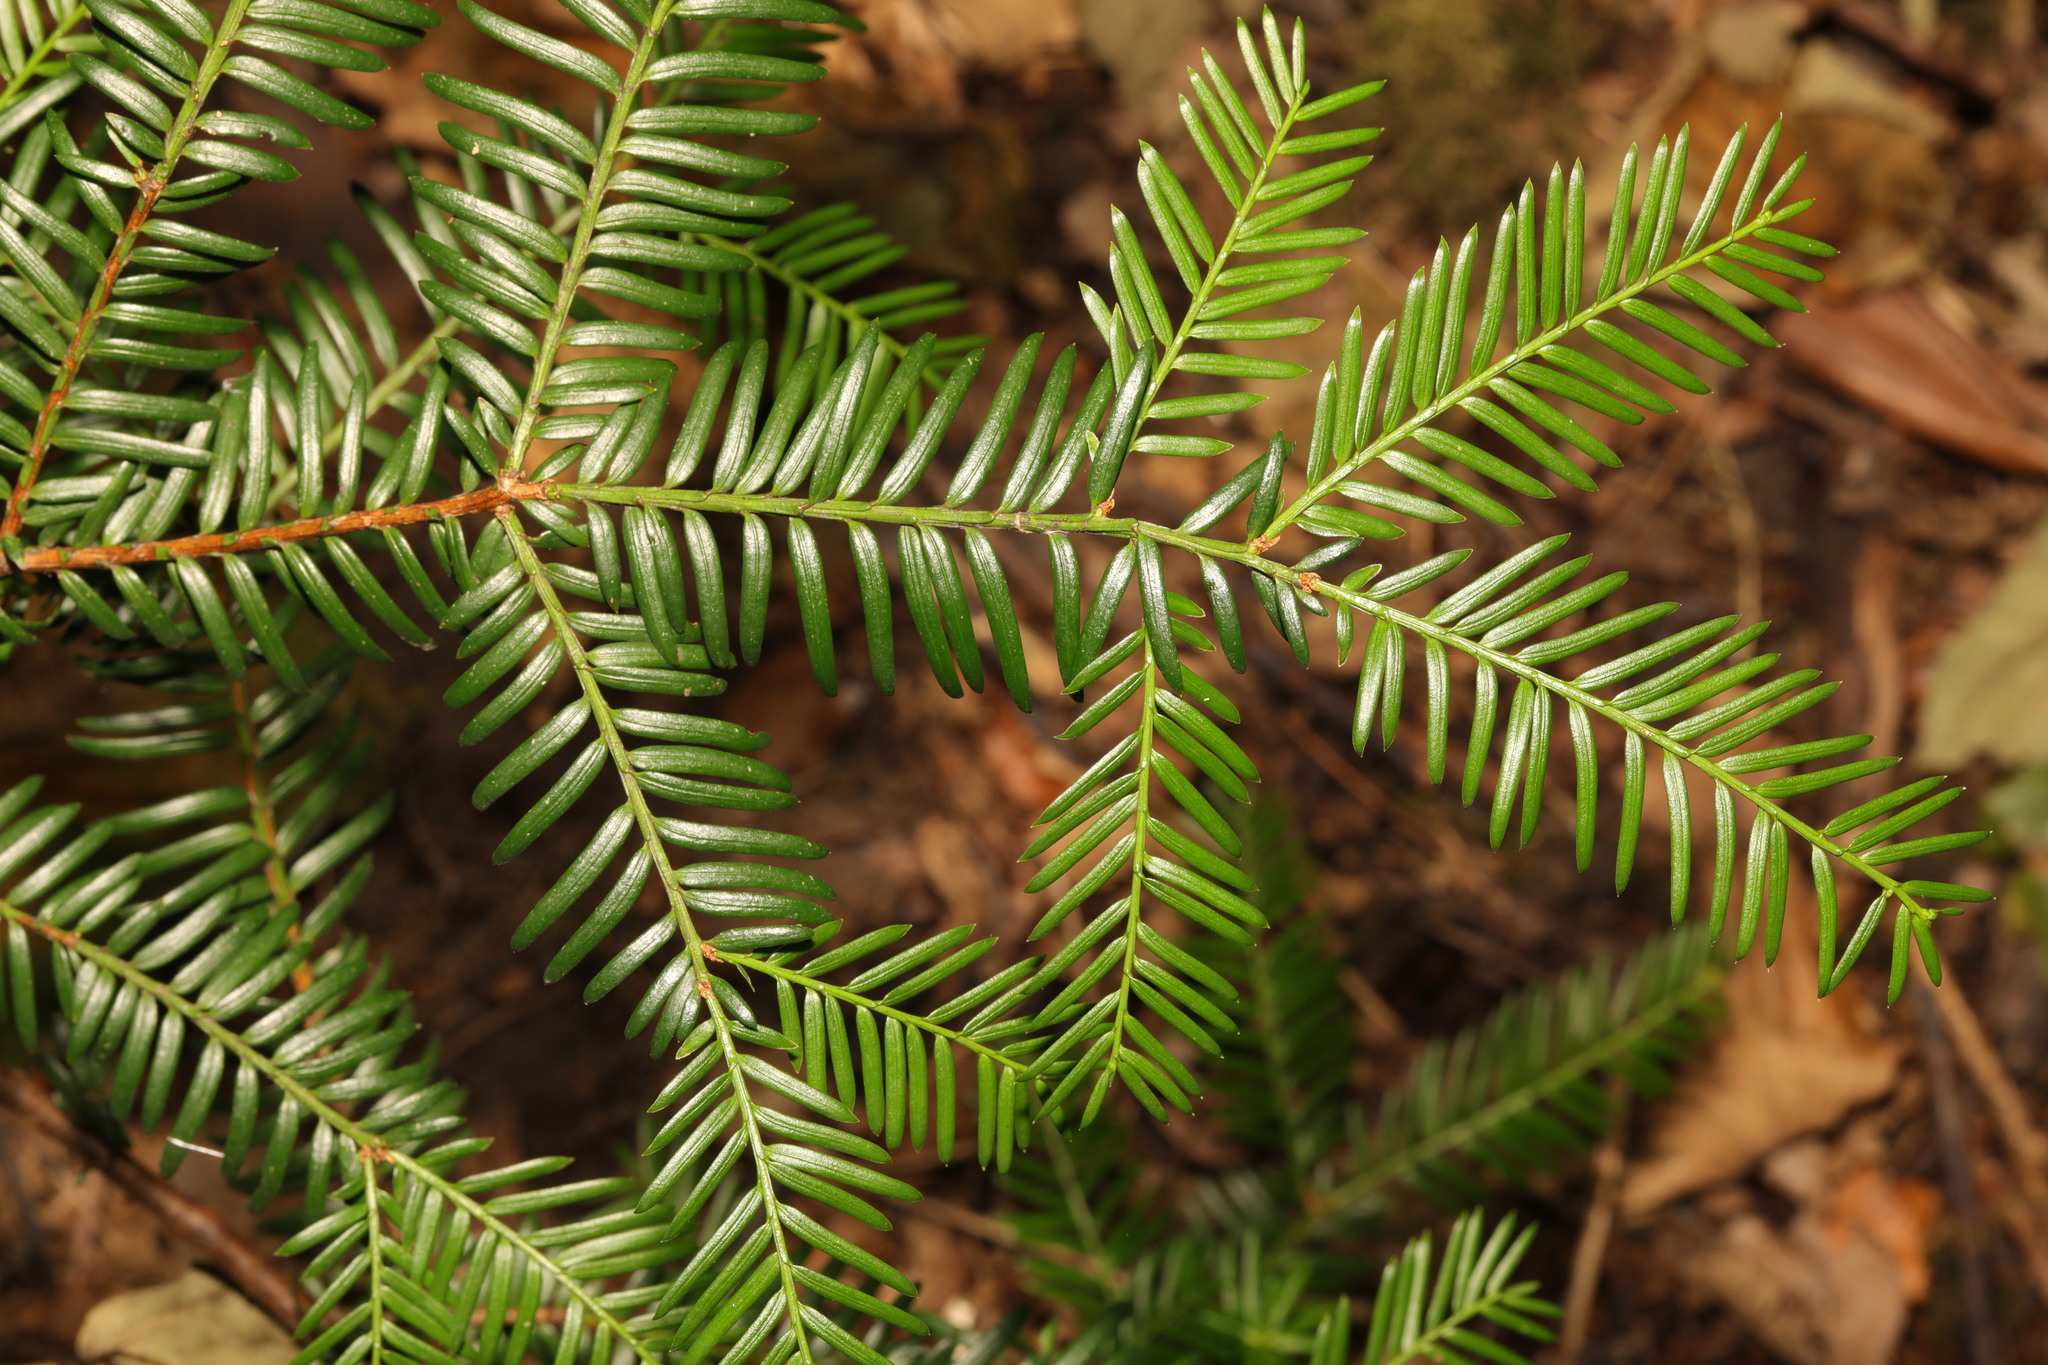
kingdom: Plantae
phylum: Tracheophyta
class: Pinopsida
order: Pinales
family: Taxaceae
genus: Taxus
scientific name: Taxus baccata
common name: Yew
